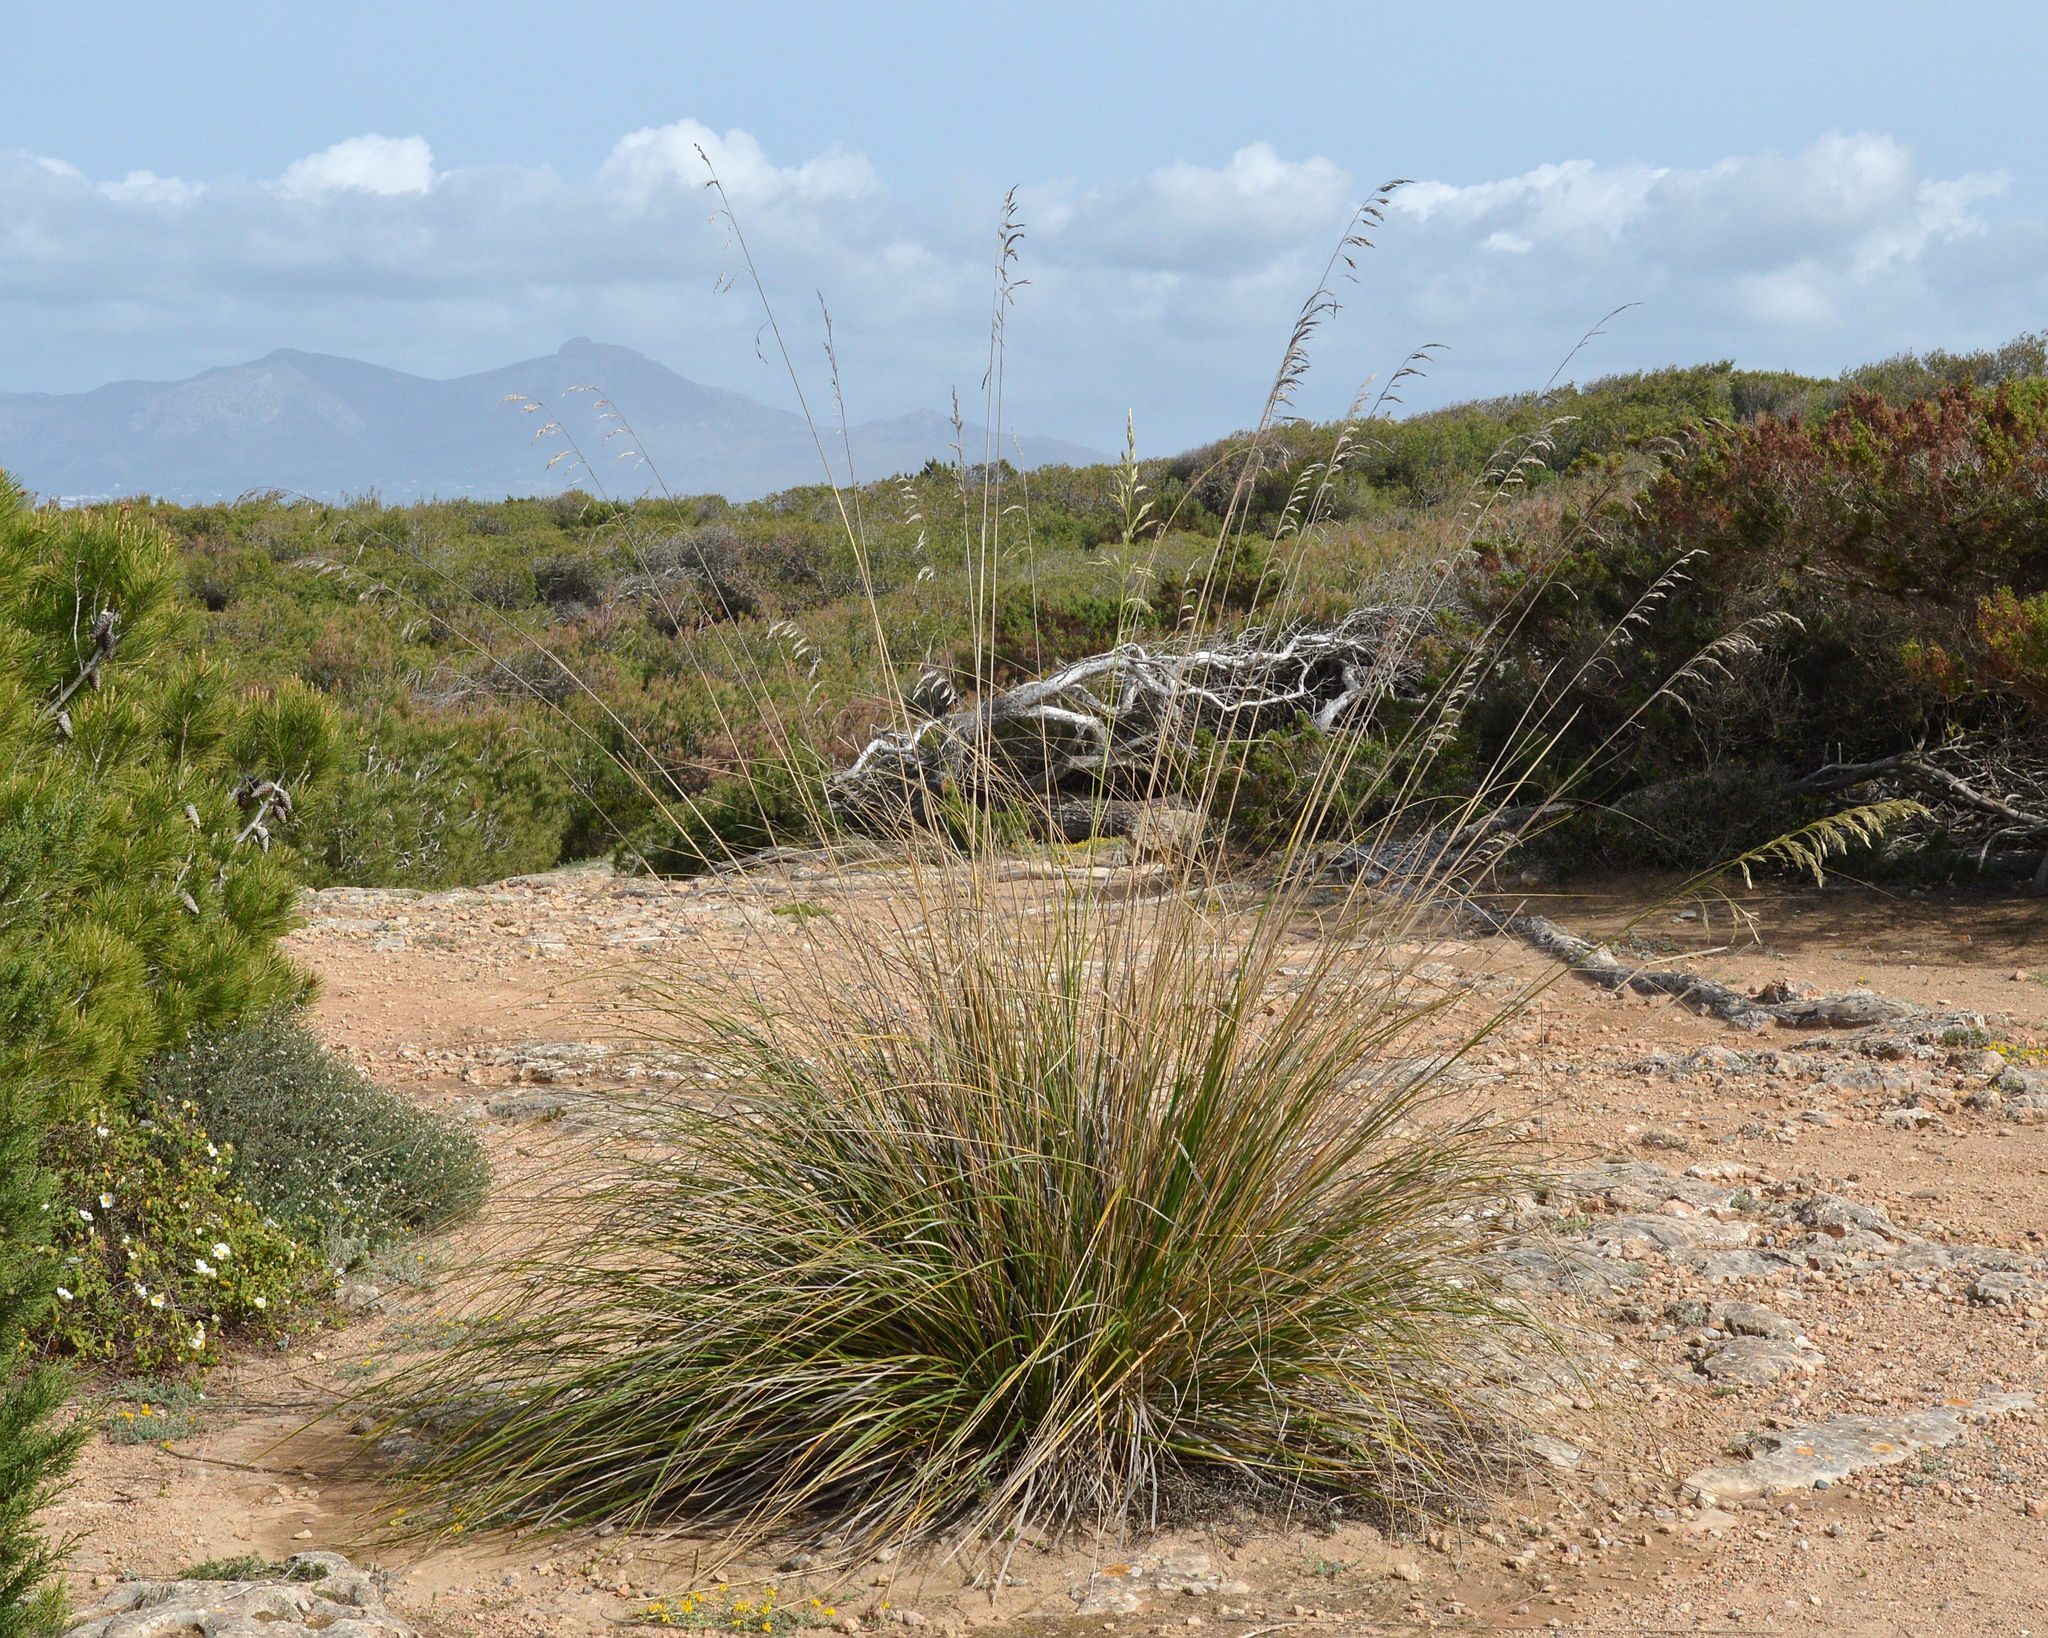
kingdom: Plantae
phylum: Tracheophyta
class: Liliopsida
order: Poales
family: Poaceae
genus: Ampelodesmos
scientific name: Ampelodesmos mauritanicus
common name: Mauritanian grass
